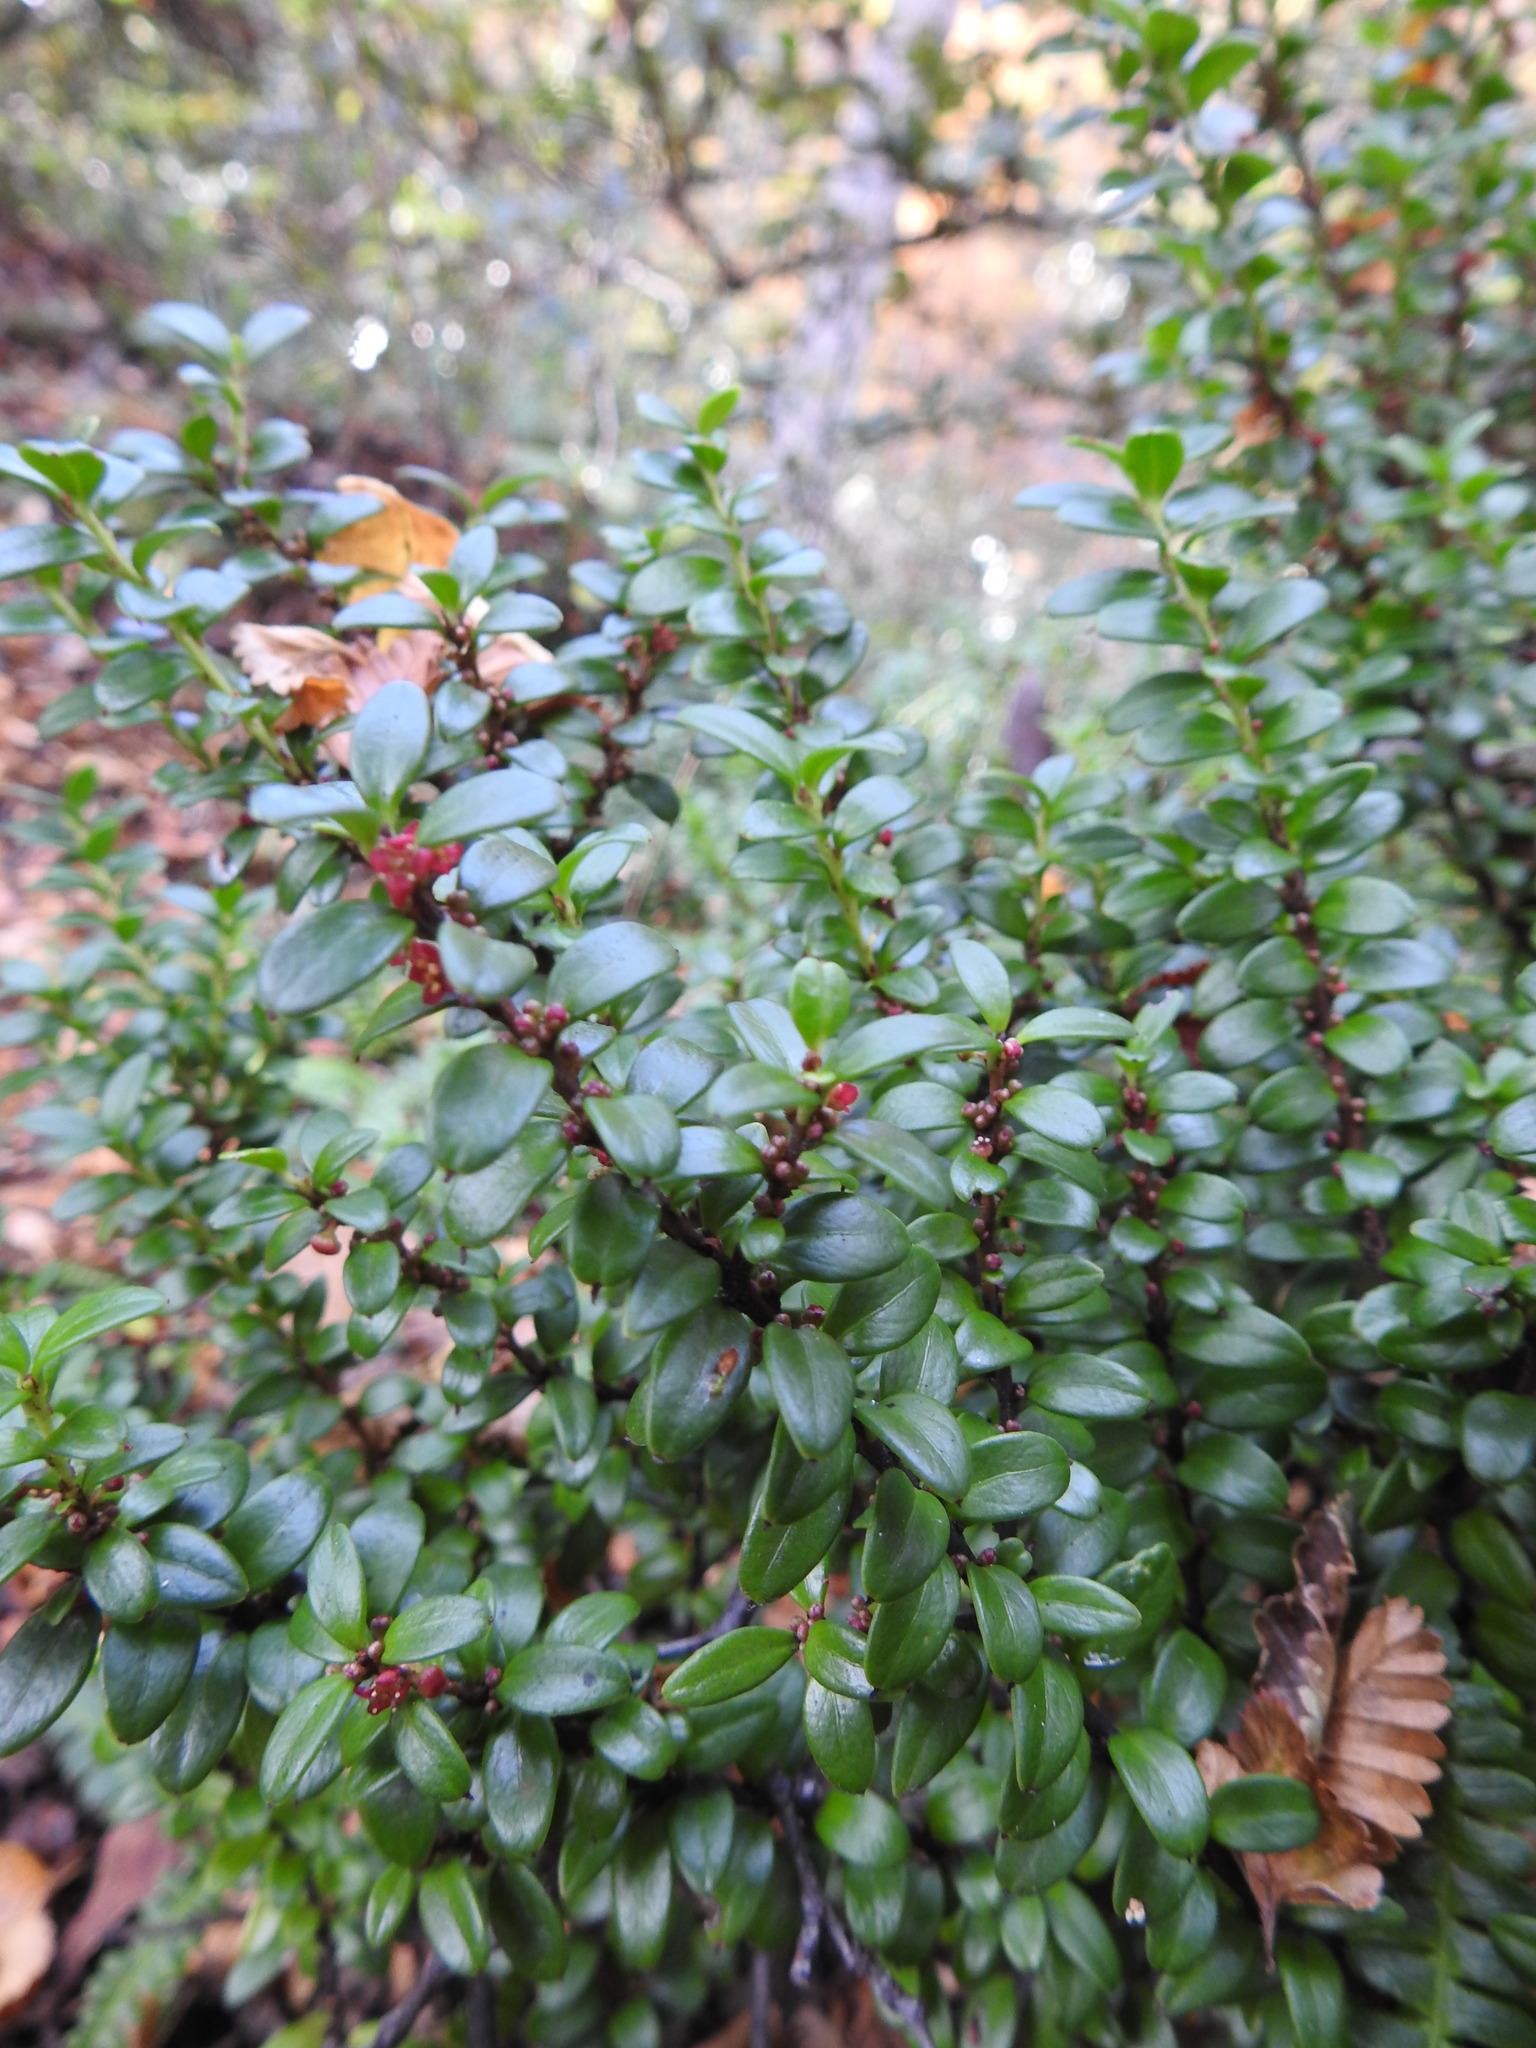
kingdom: Plantae
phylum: Tracheophyta
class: Magnoliopsida
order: Celastrales
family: Celastraceae
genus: Maytenus
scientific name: Maytenus disticha
